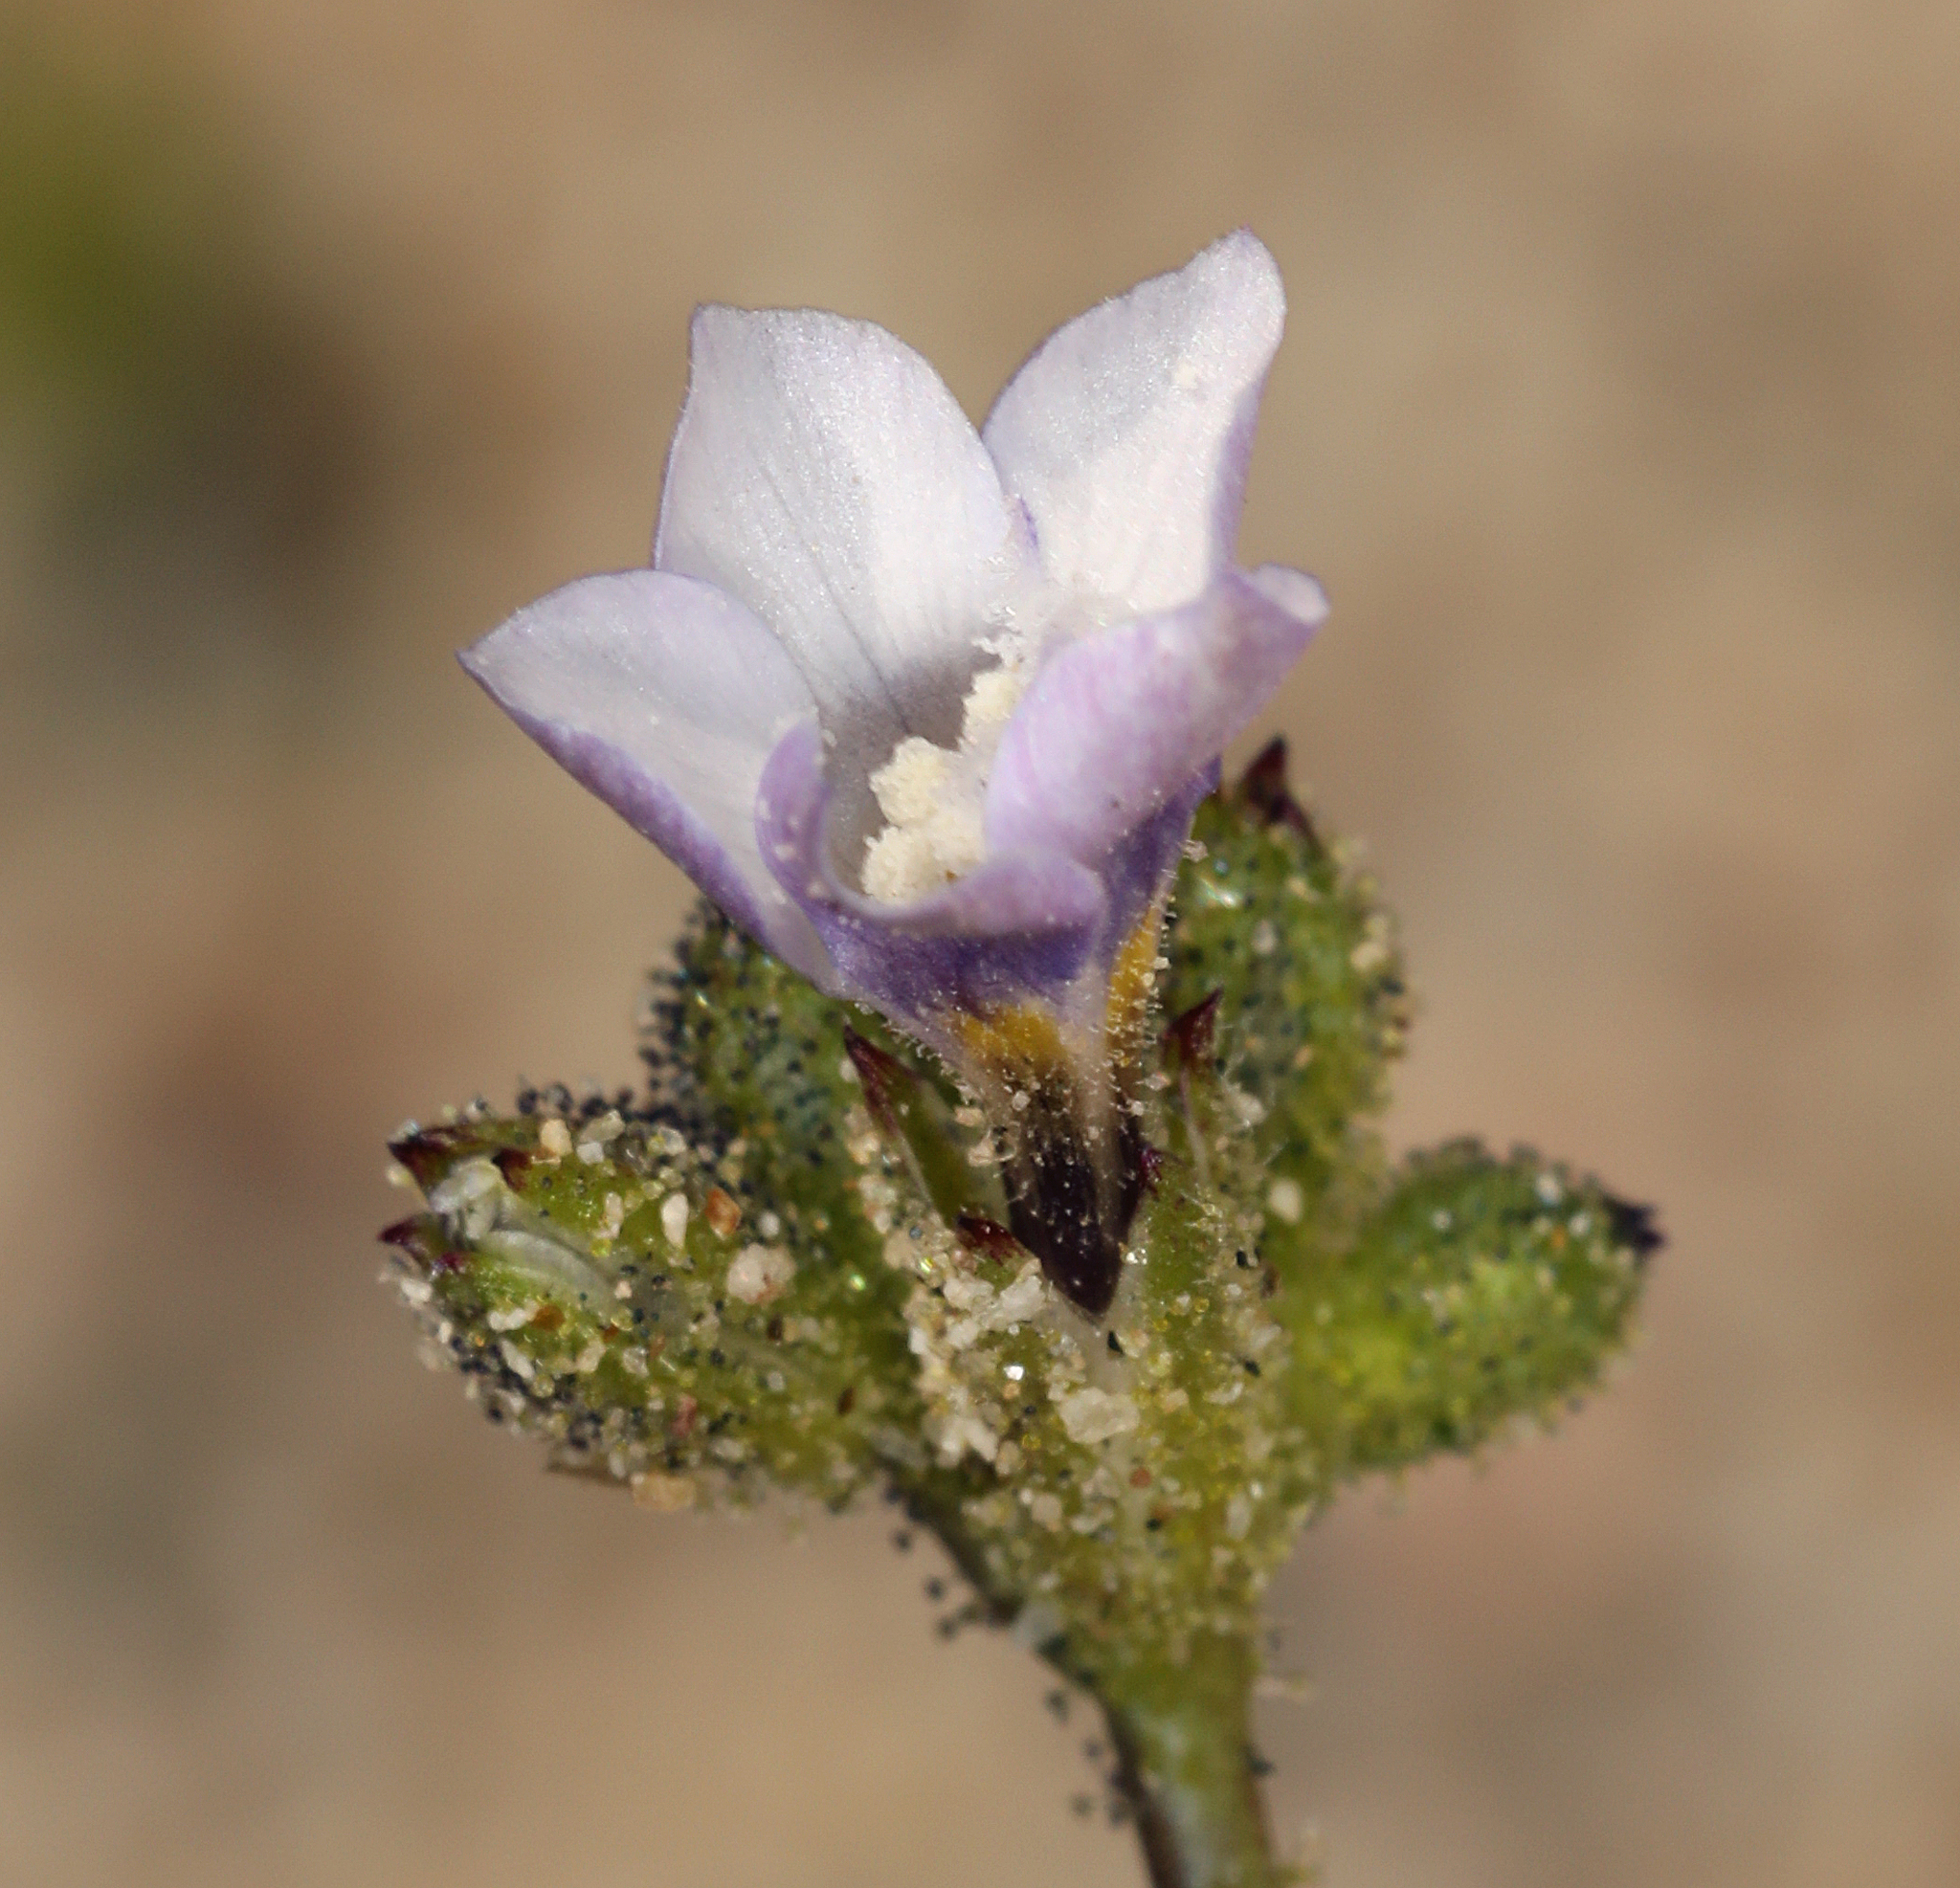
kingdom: Plantae
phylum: Tracheophyta
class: Magnoliopsida
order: Ericales
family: Polemoniaceae
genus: Gilia
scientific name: Gilia sinuata
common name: Rosy gilia
